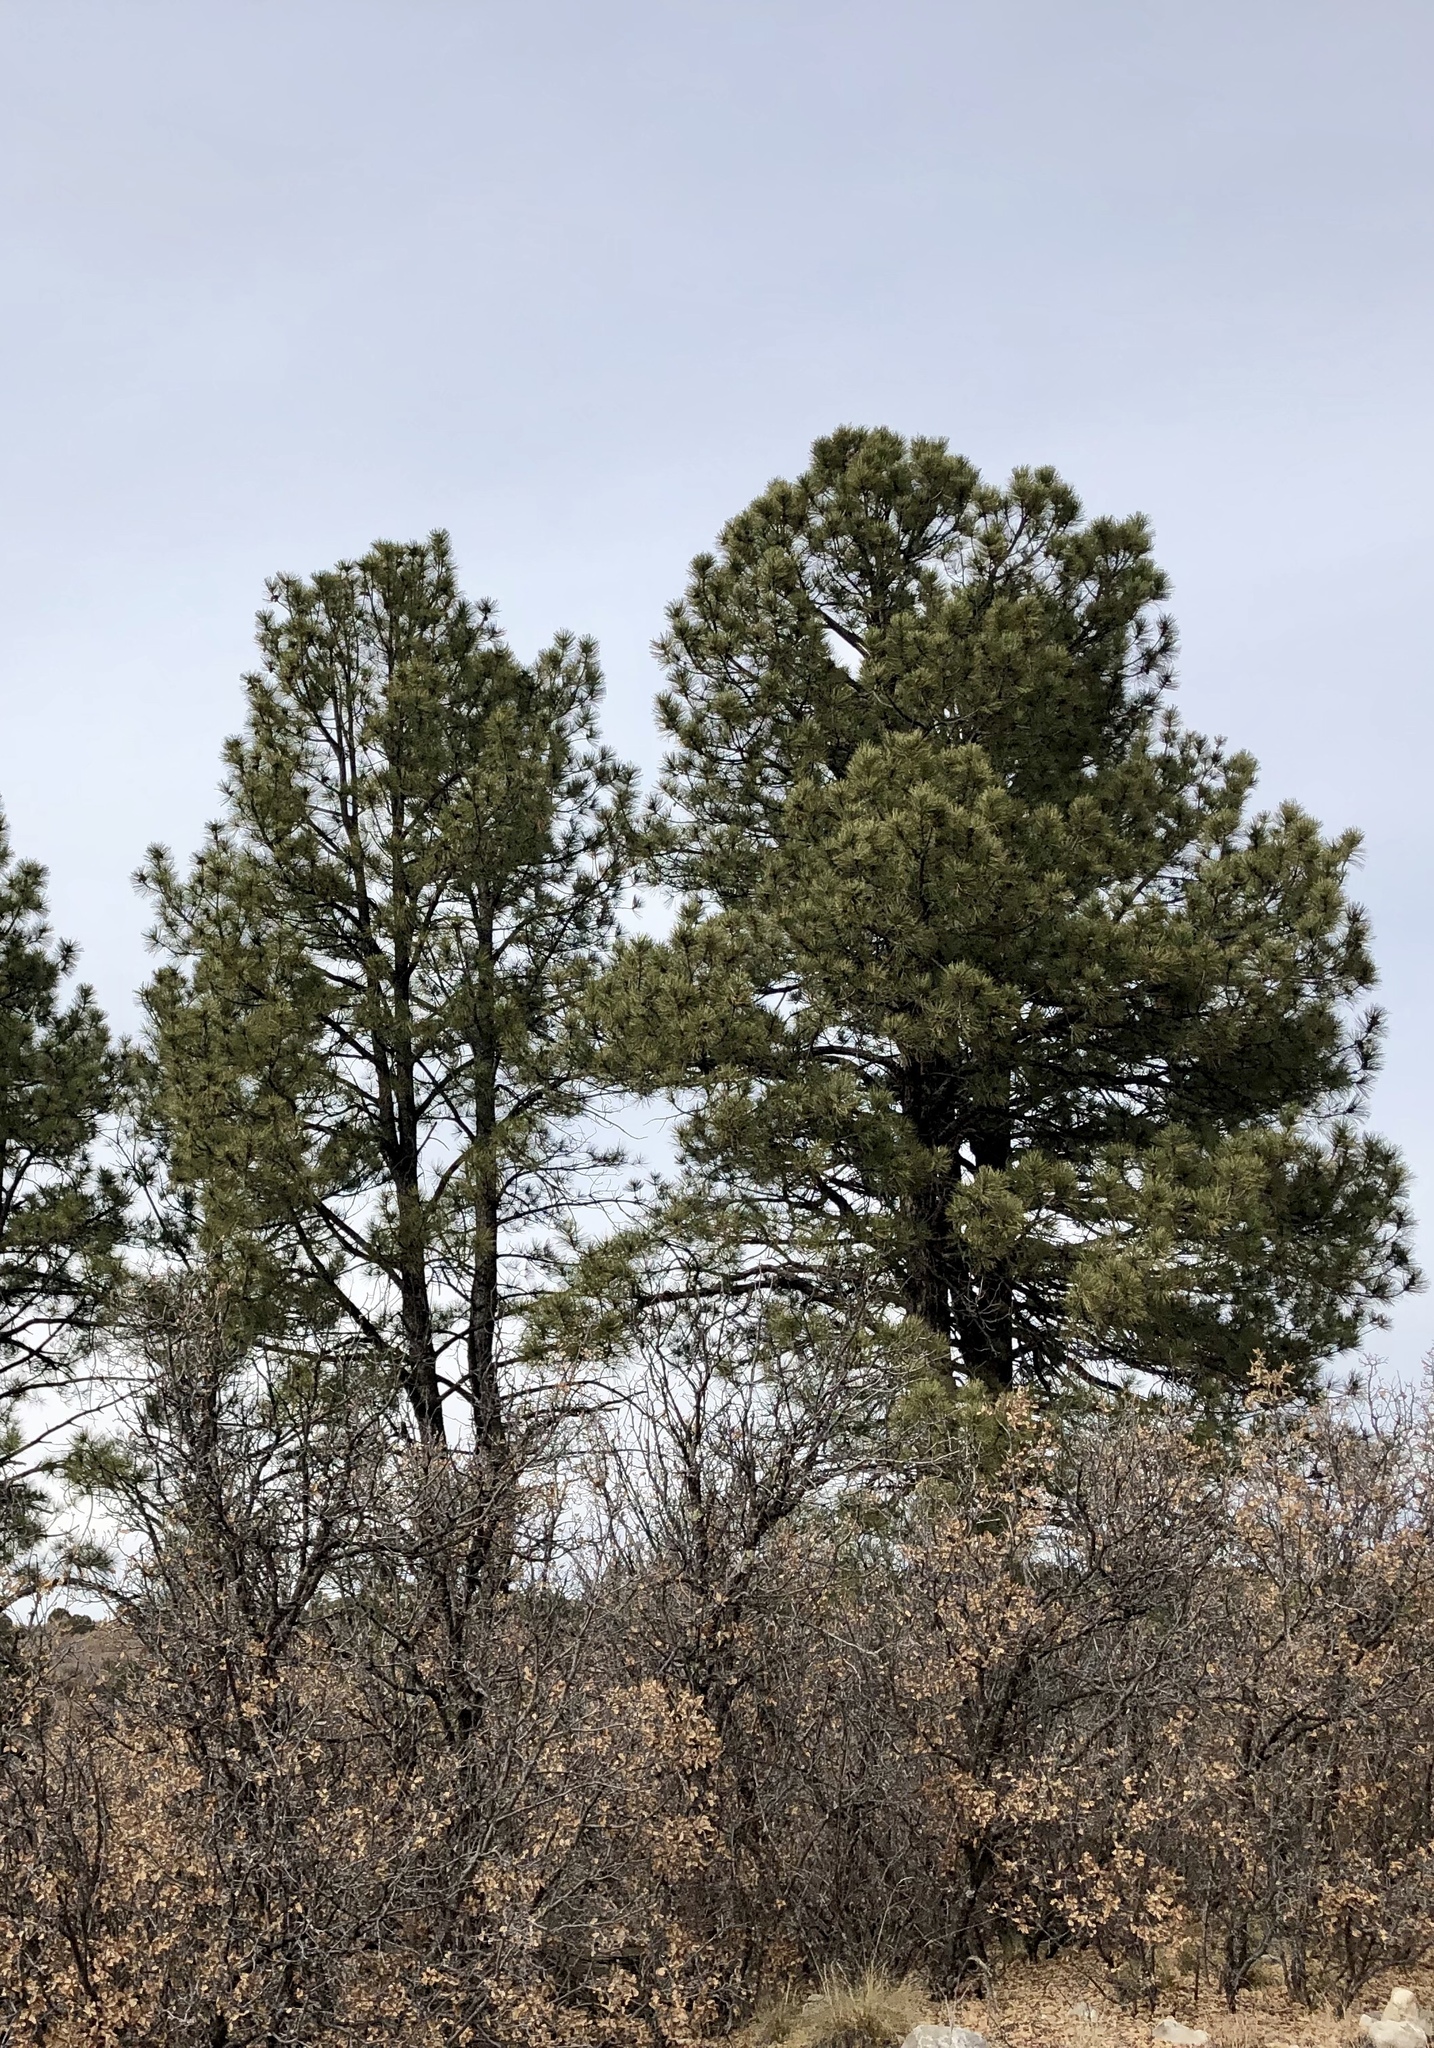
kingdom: Plantae
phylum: Tracheophyta
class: Pinopsida
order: Pinales
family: Pinaceae
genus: Pinus
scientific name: Pinus ponderosa
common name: Western yellow-pine
